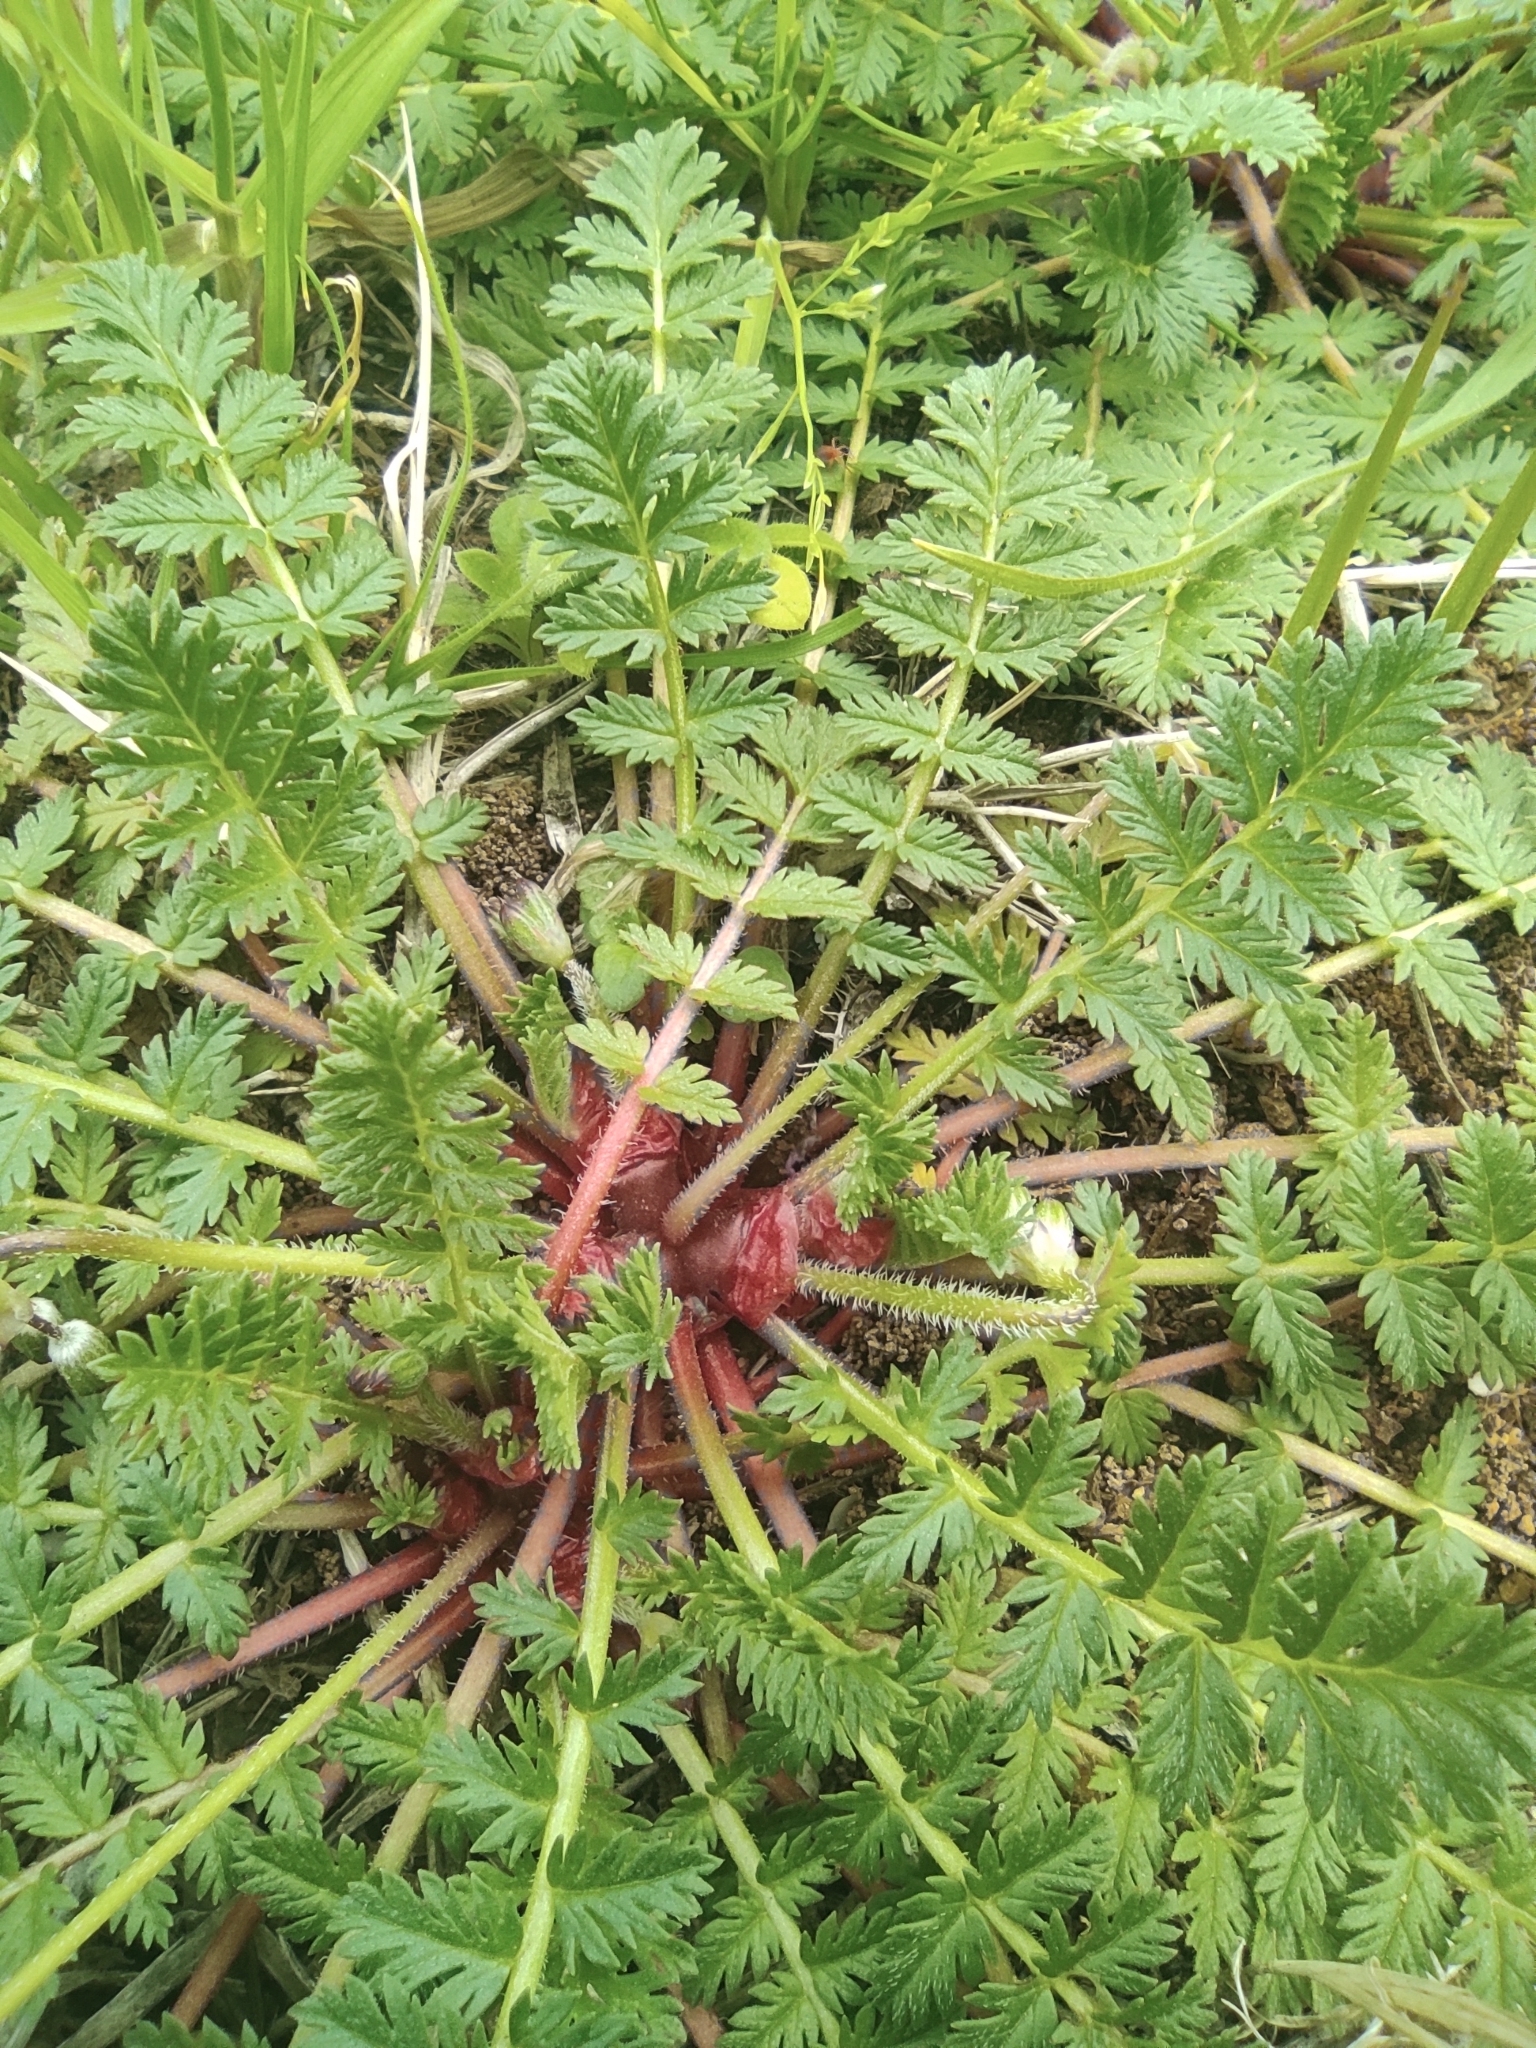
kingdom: Plantae
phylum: Tracheophyta
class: Magnoliopsida
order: Geraniales
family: Geraniaceae
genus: Erodium
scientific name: Erodium cicutarium
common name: Common stork's-bill
